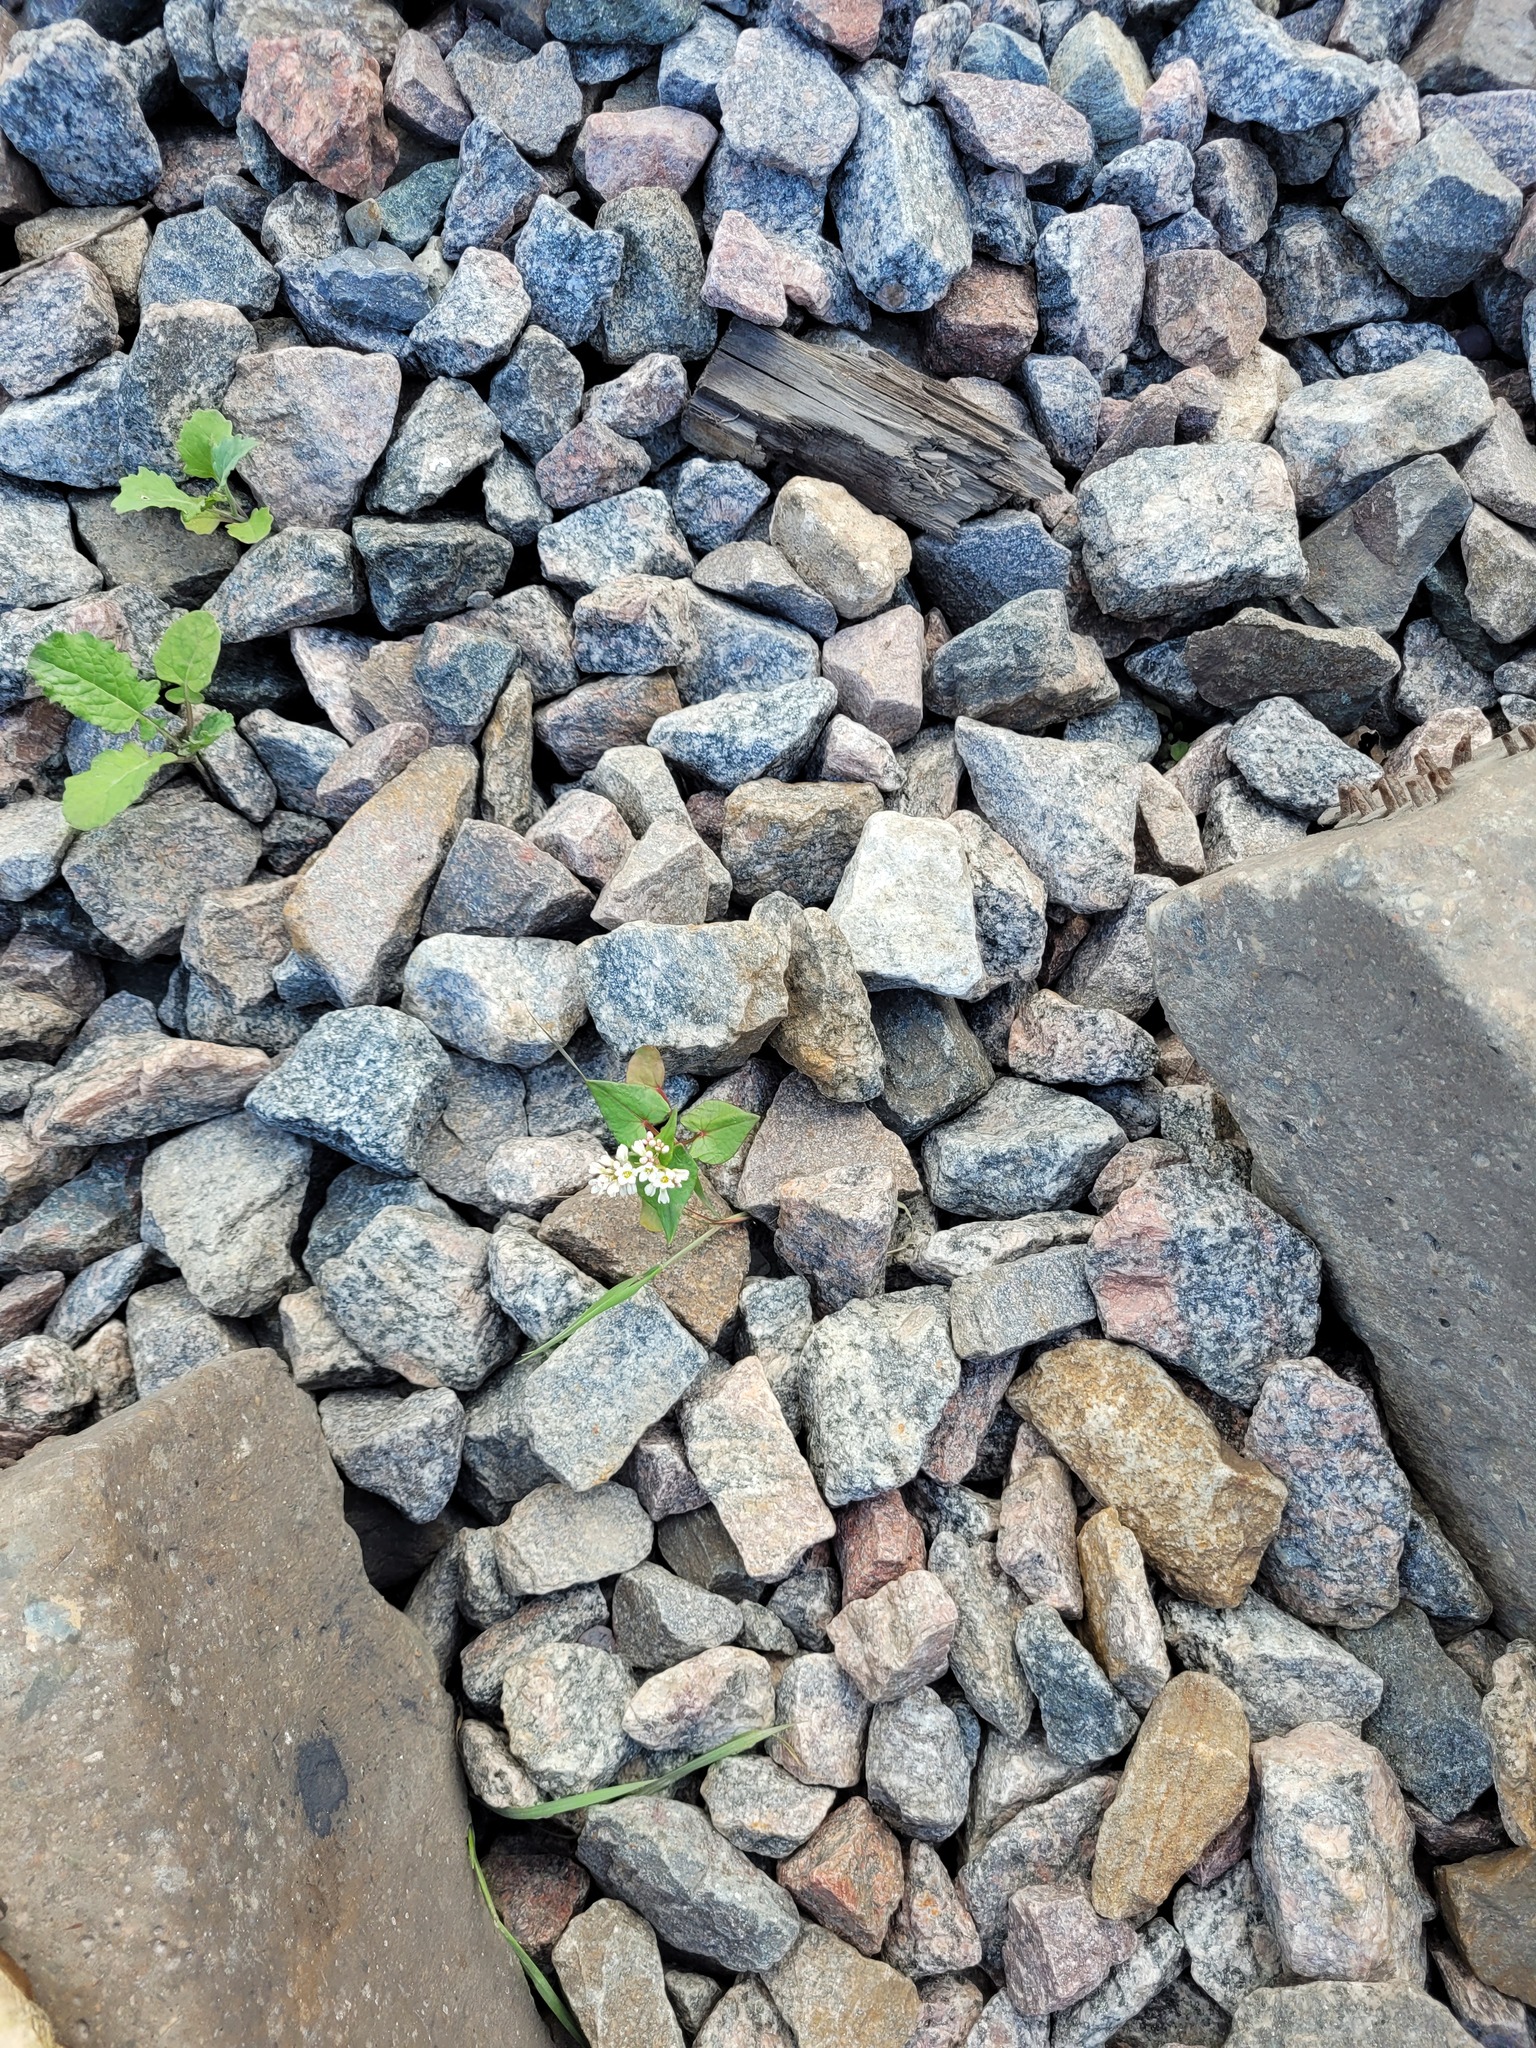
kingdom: Plantae
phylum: Tracheophyta
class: Magnoliopsida
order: Caryophyllales
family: Polygonaceae
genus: Fagopyrum
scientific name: Fagopyrum esculentum
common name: Buckwheat
